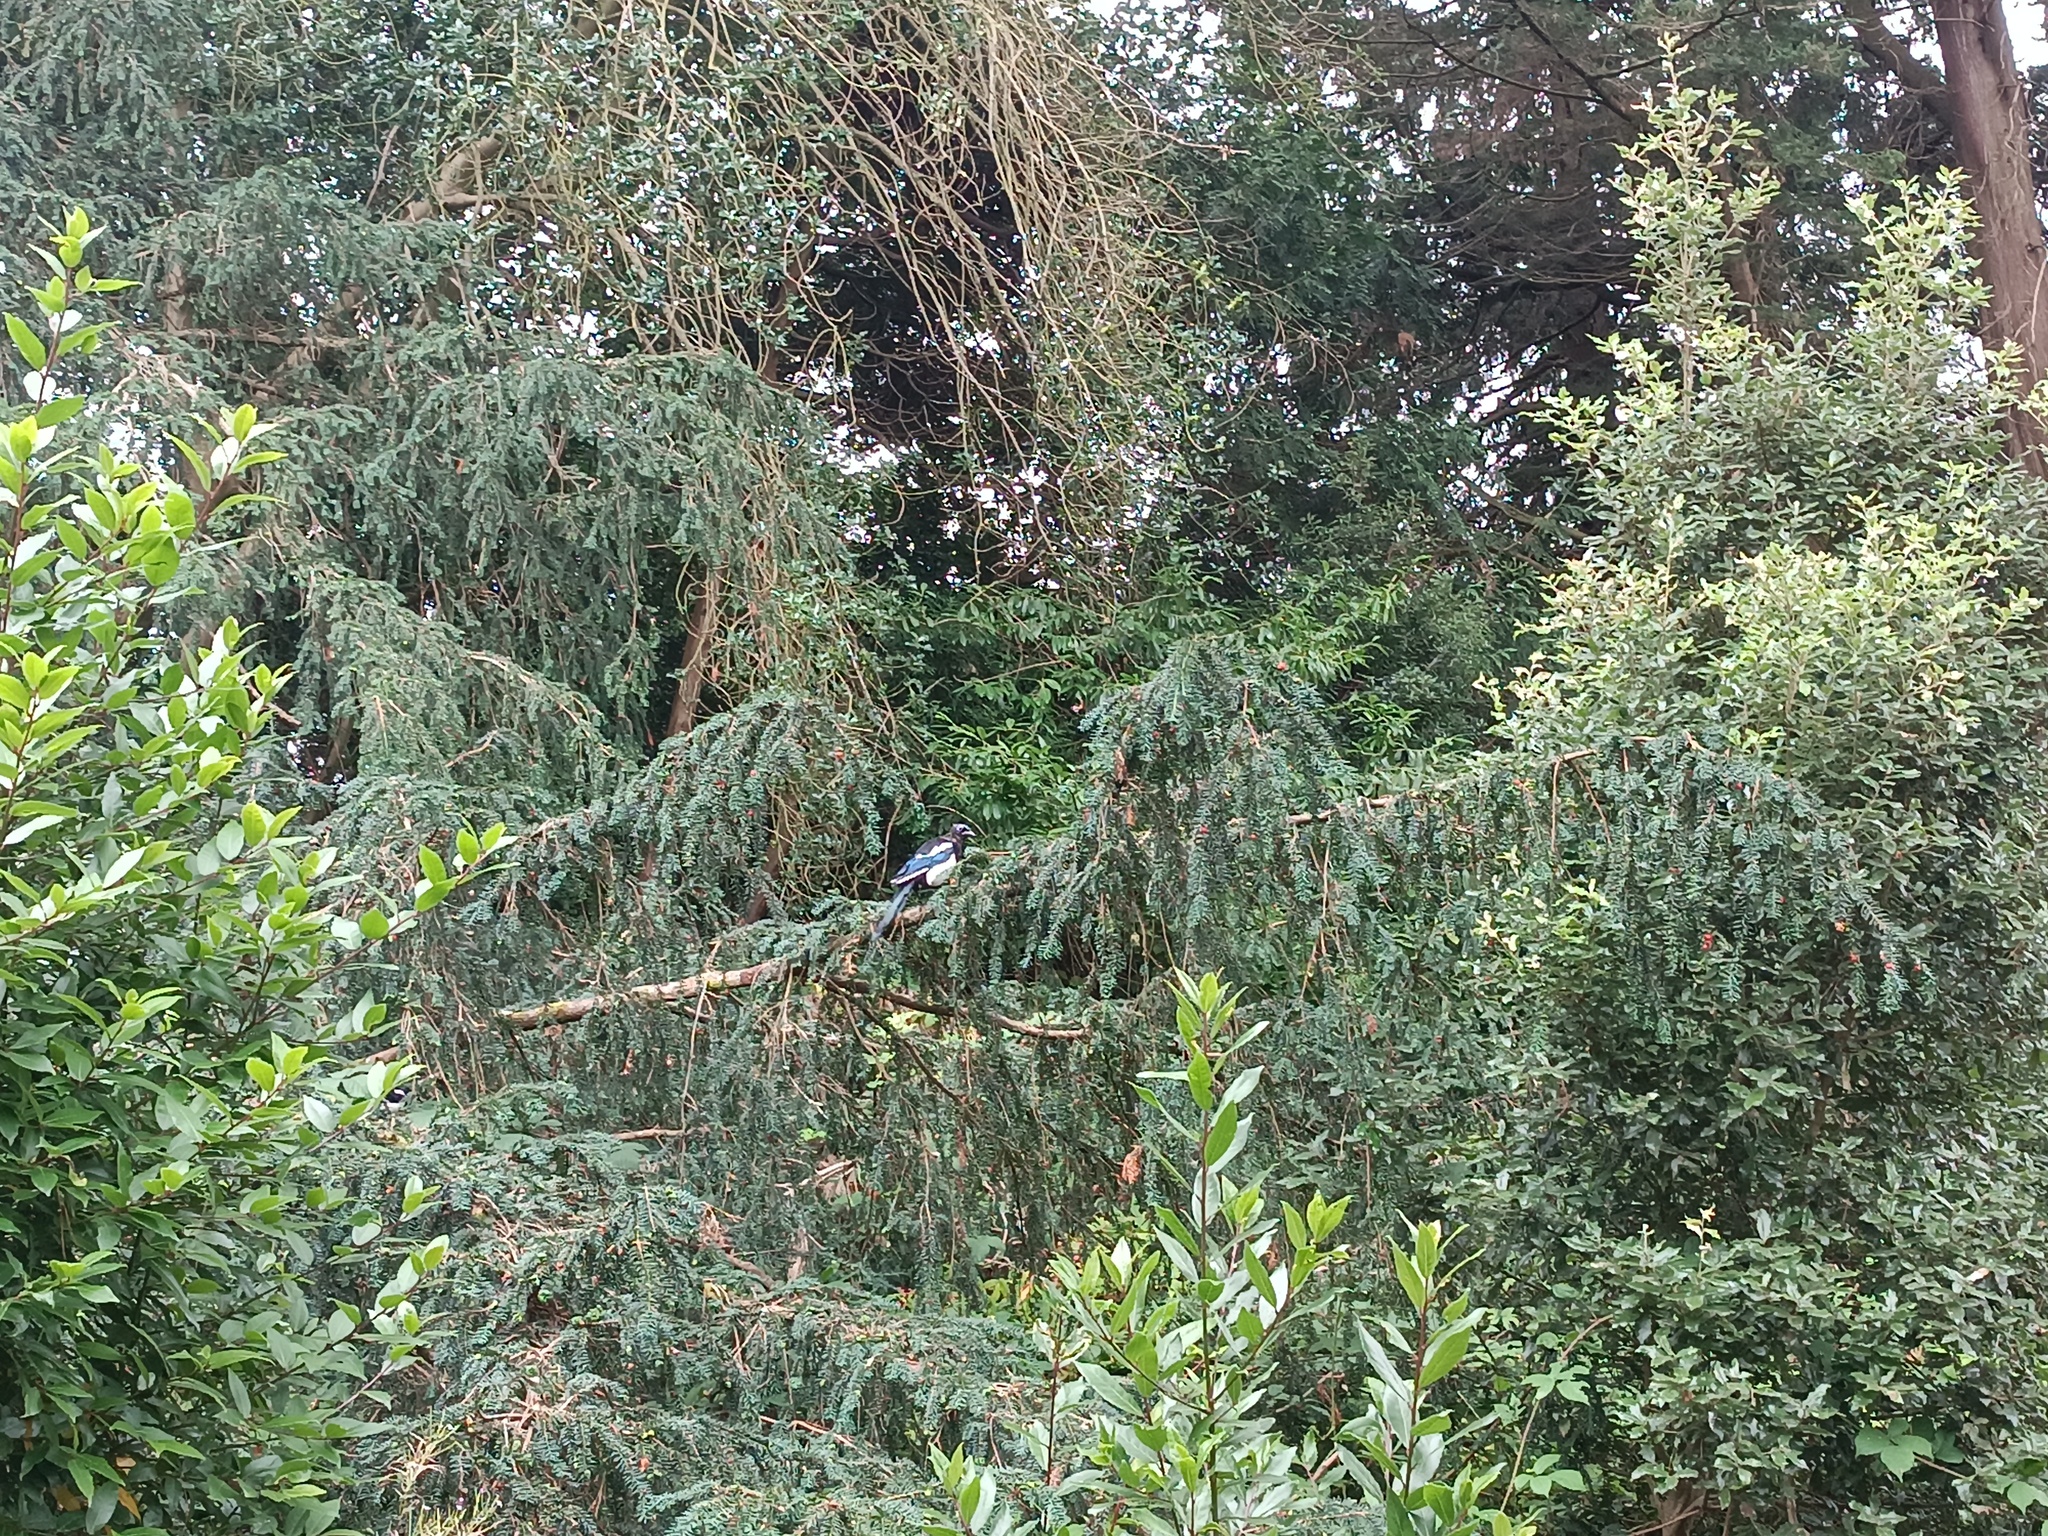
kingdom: Animalia
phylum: Chordata
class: Aves
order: Passeriformes
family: Corvidae
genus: Pica
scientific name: Pica pica
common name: Eurasian magpie
